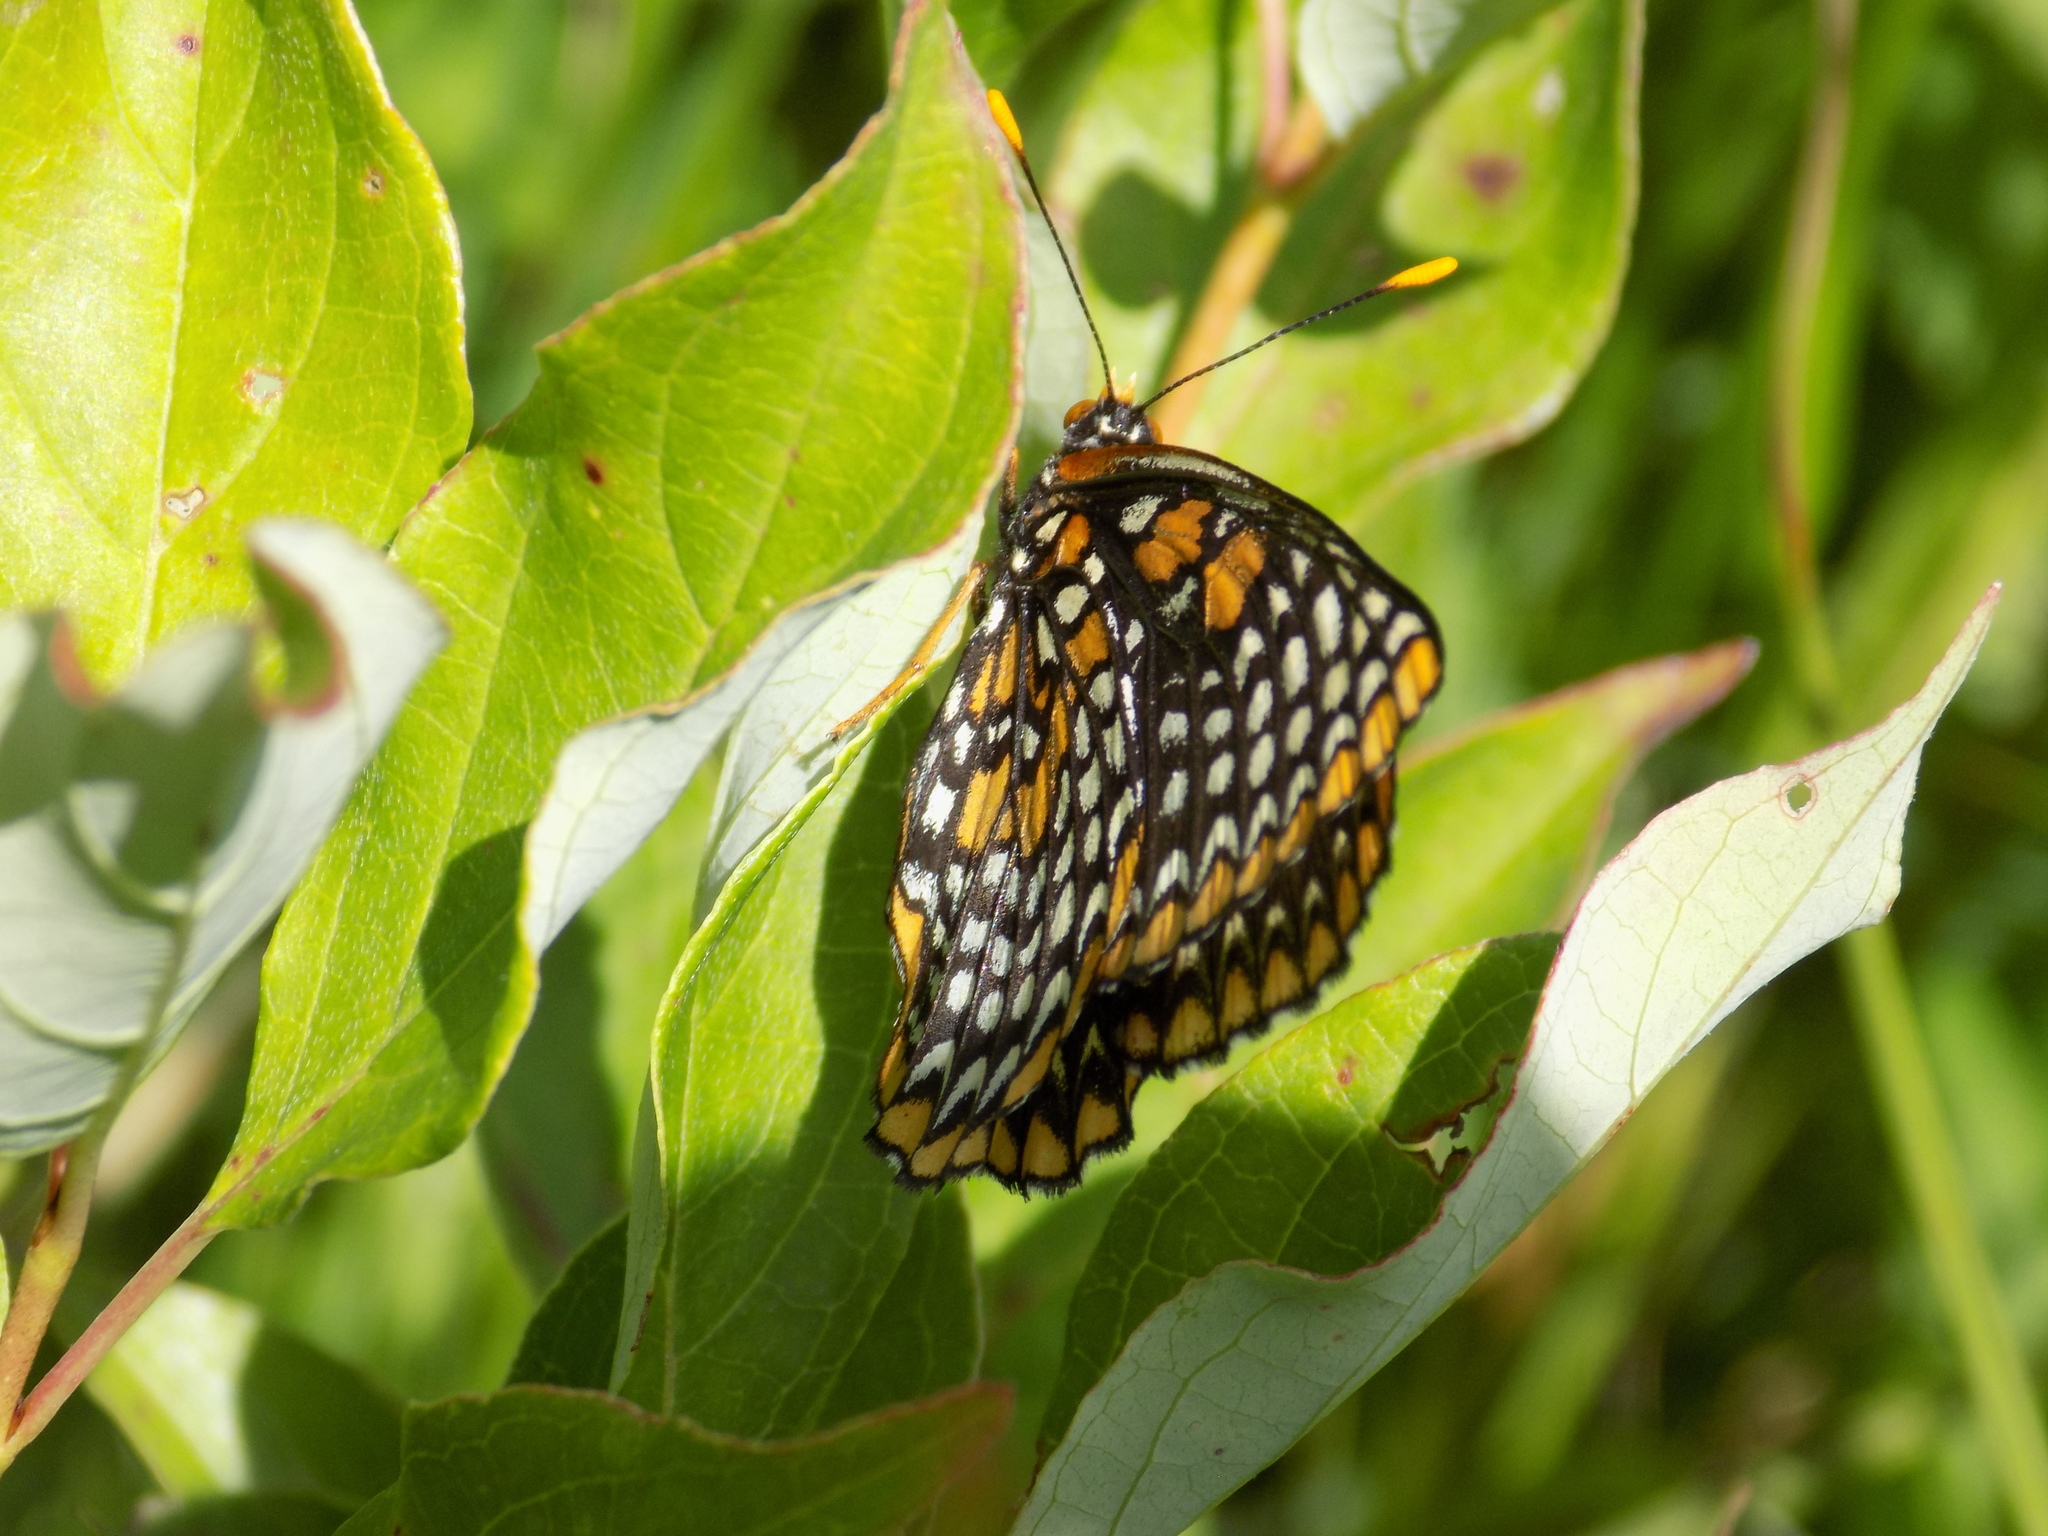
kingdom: Animalia
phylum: Arthropoda
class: Insecta
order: Lepidoptera
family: Nymphalidae
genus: Euphydryas
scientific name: Euphydryas phaeton
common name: Baltimore checkerspot
